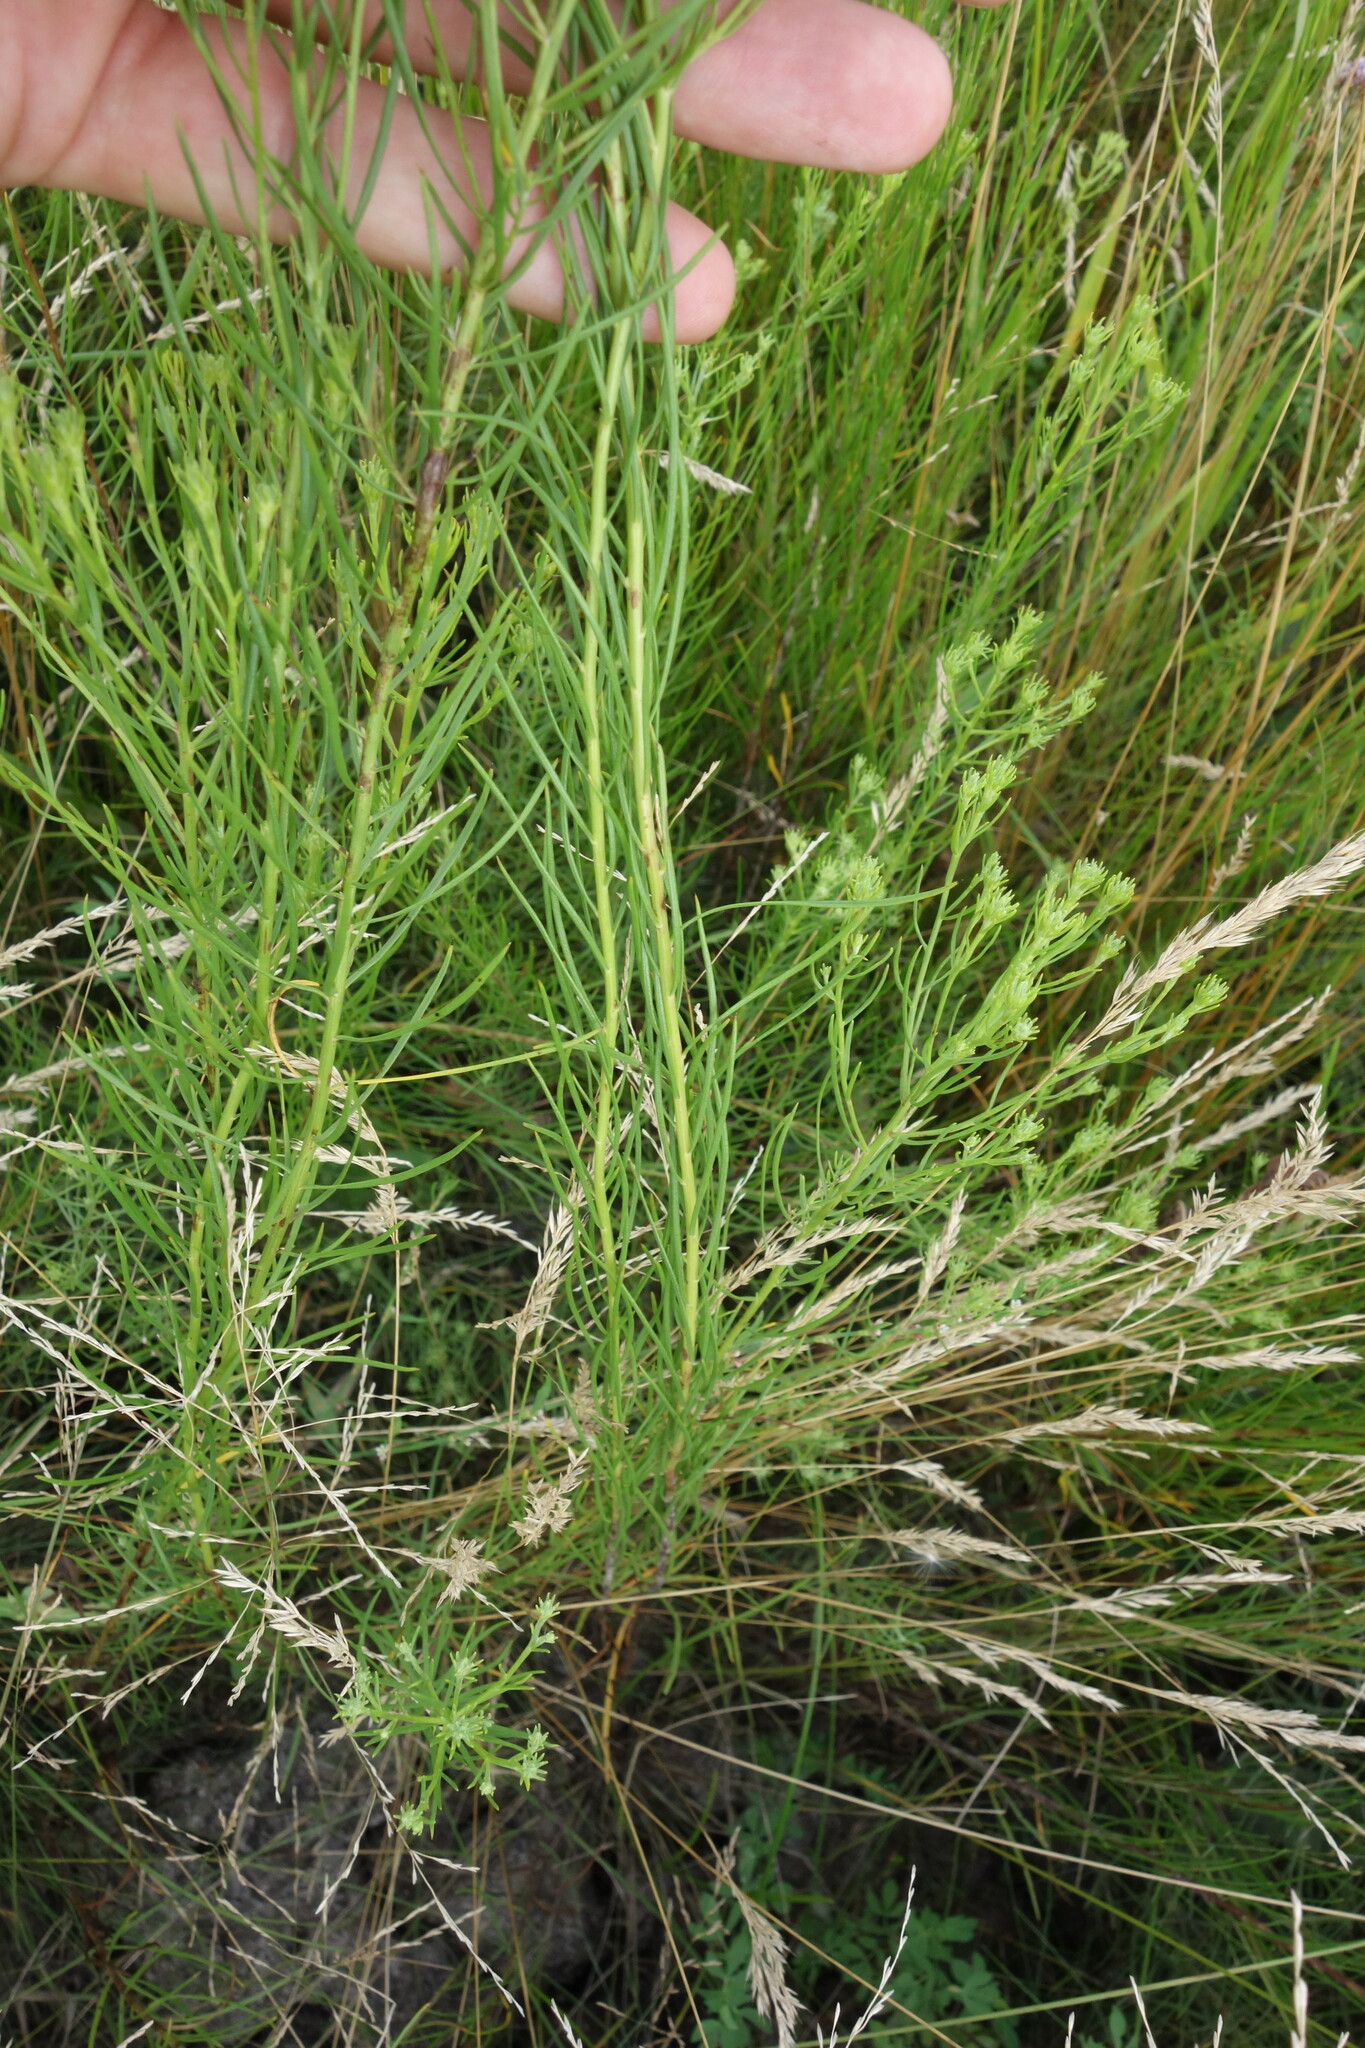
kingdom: Plantae
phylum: Tracheophyta
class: Magnoliopsida
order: Asterales
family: Asteraceae
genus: Galatella
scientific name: Galatella linosyris
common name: Goldilocks aster
